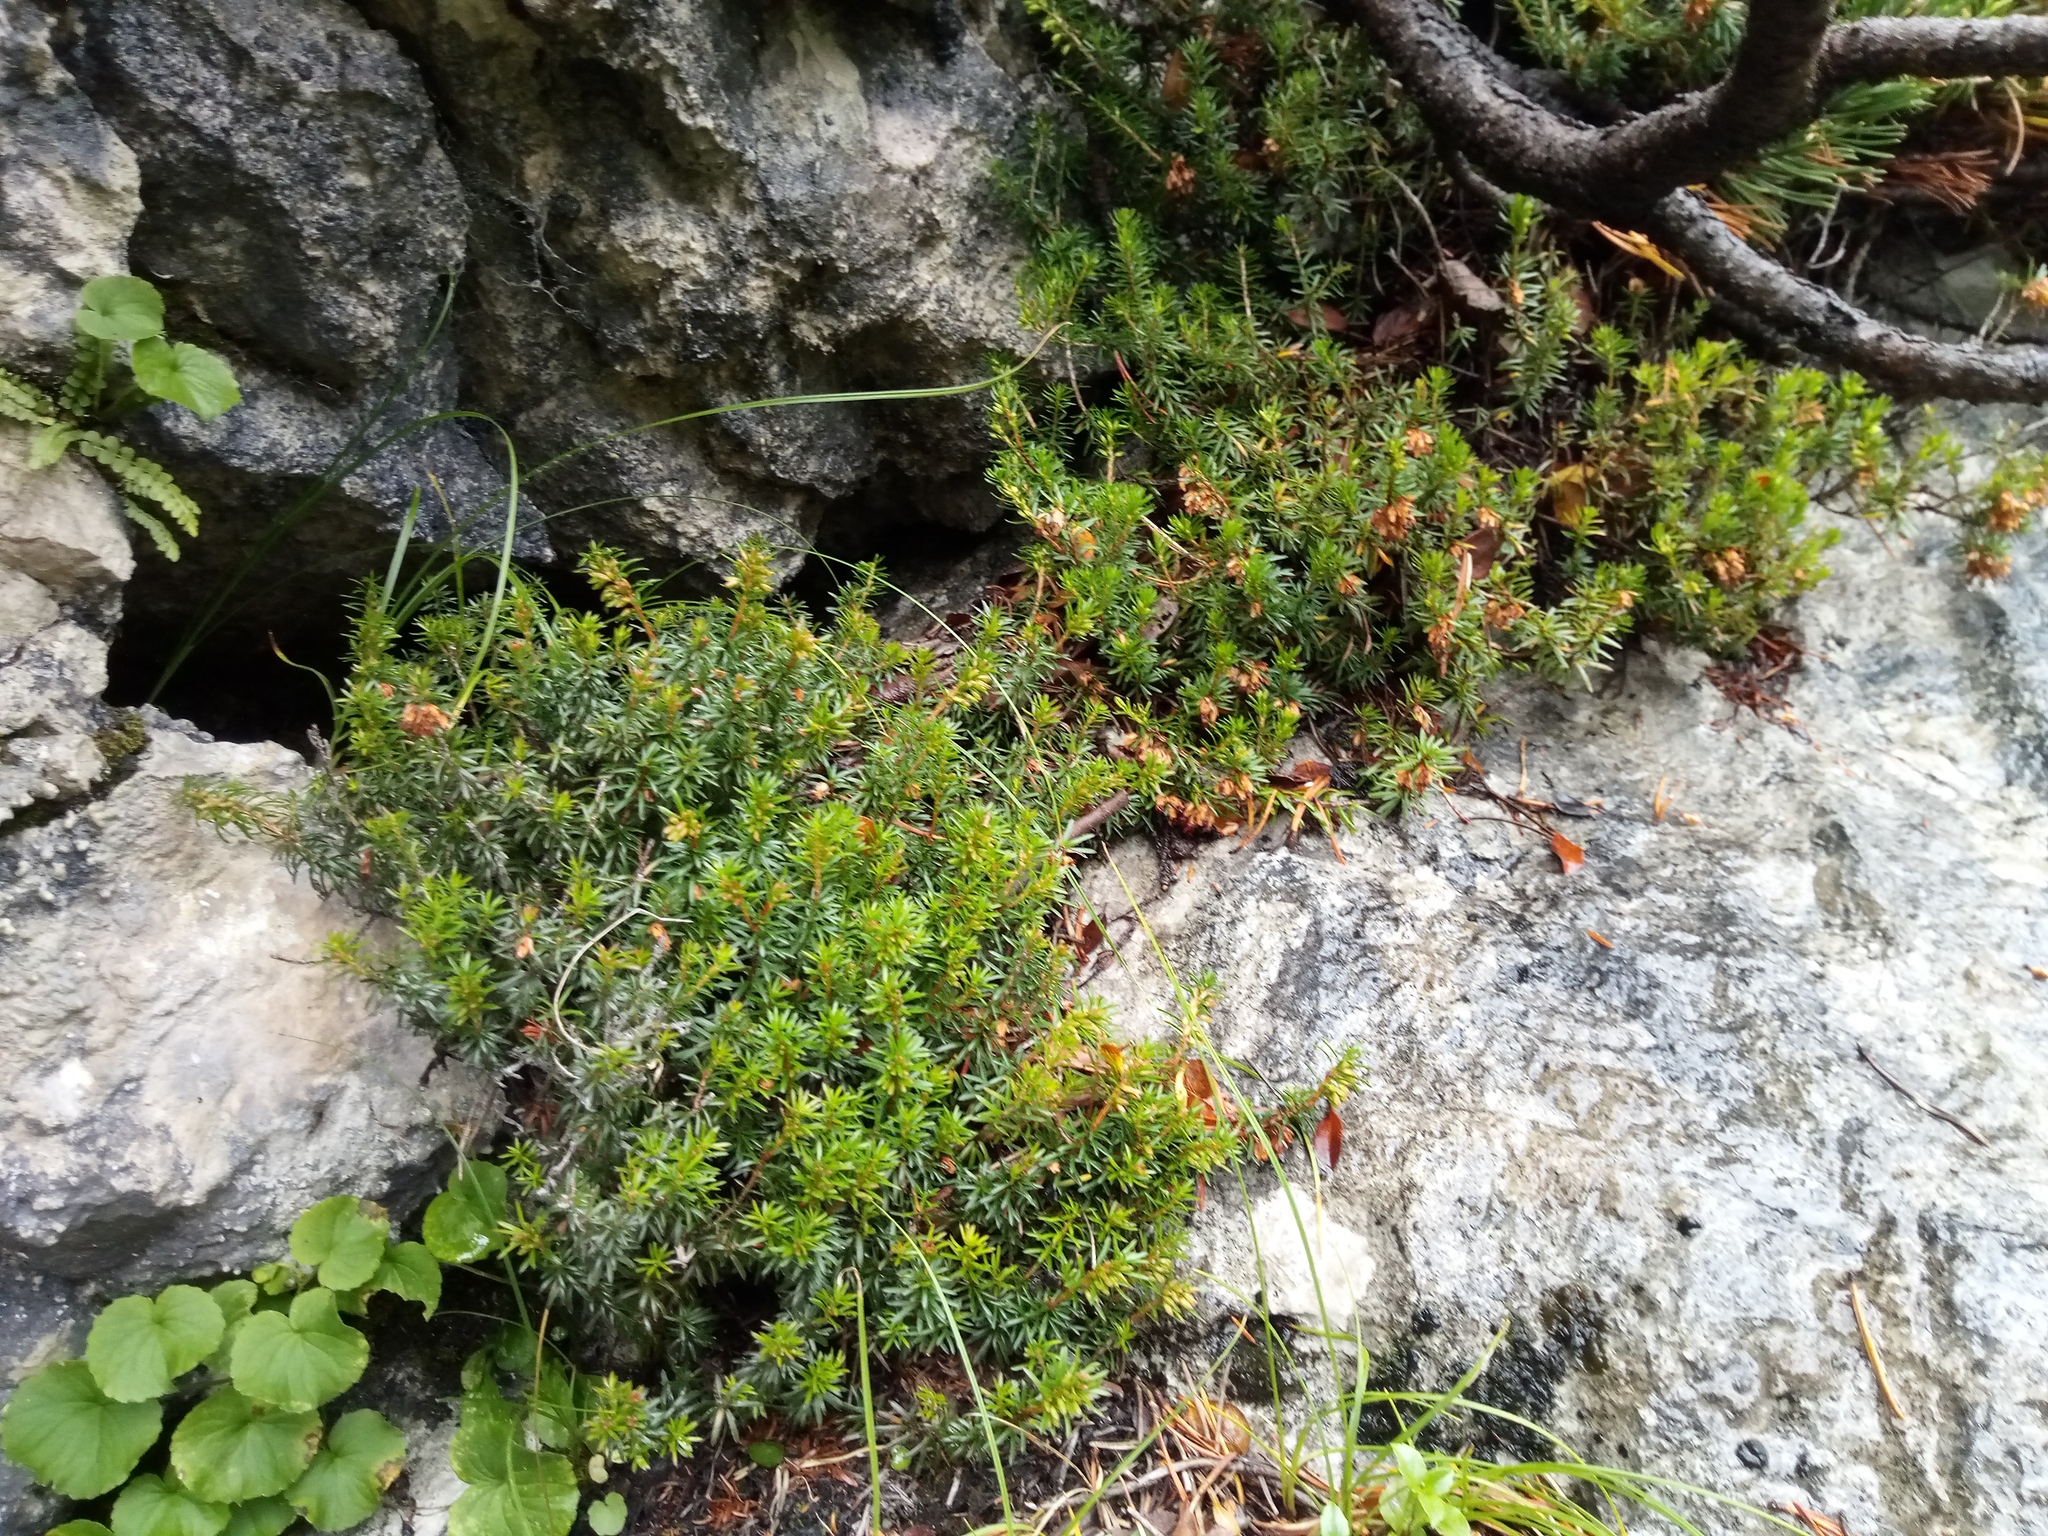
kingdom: Plantae
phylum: Tracheophyta
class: Magnoliopsida
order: Ericales
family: Ericaceae
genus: Erica
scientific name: Erica carnea
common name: Winter heath
